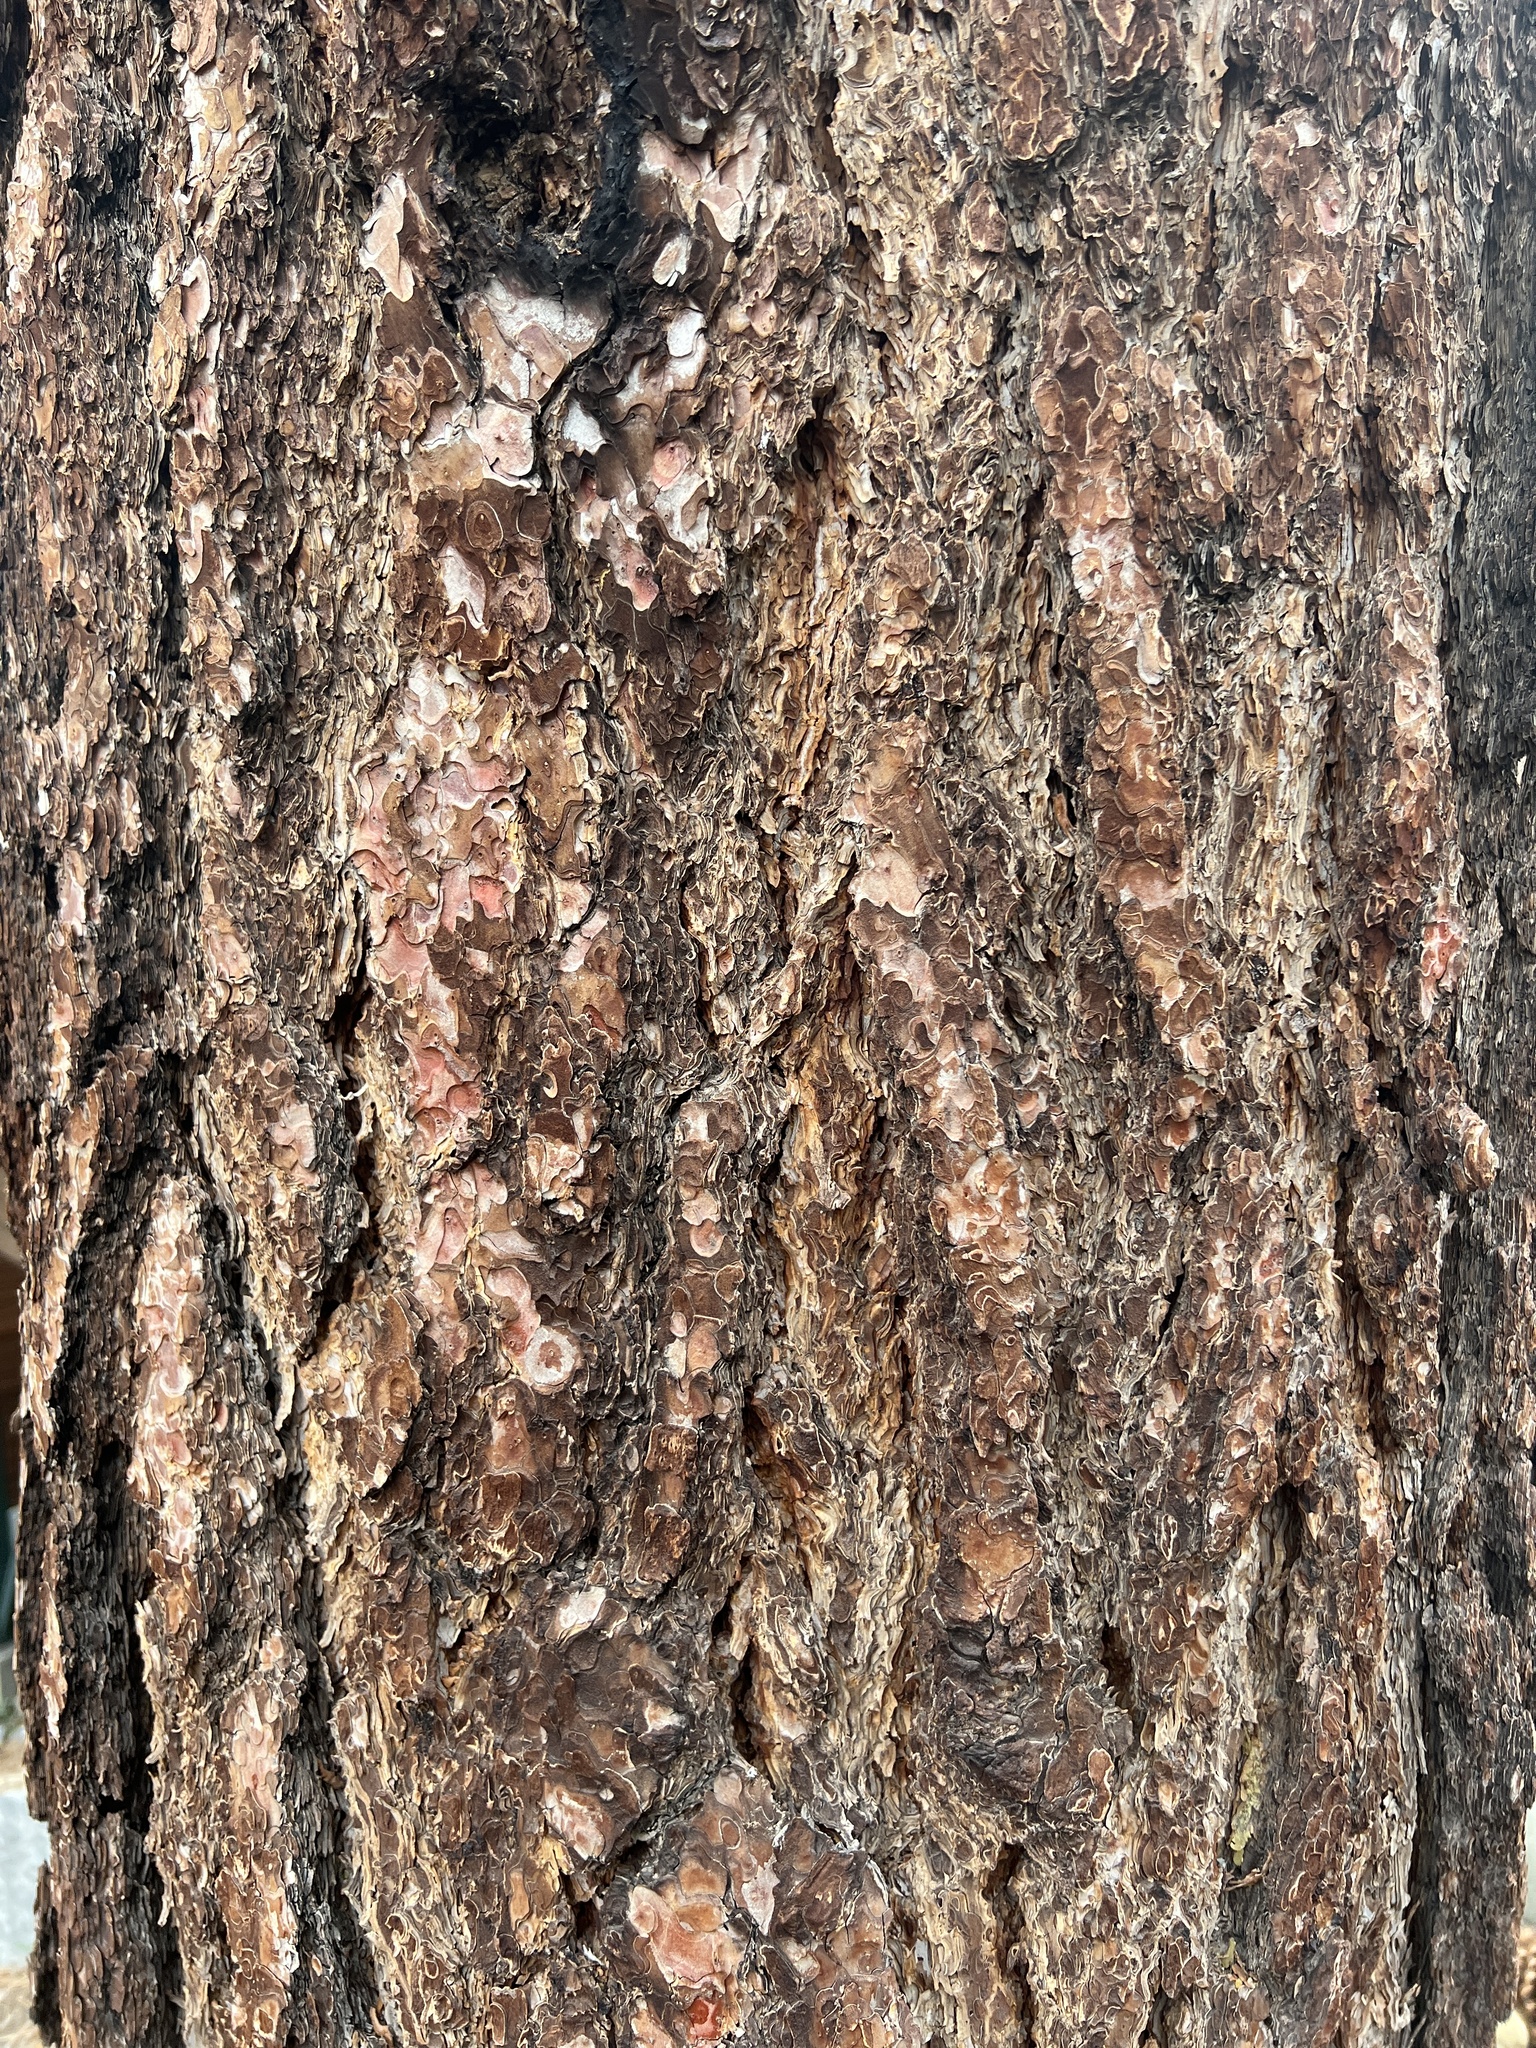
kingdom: Plantae
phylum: Tracheophyta
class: Pinopsida
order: Pinales
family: Pinaceae
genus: Pinus
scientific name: Pinus jeffreyi
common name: Jeffrey pine
